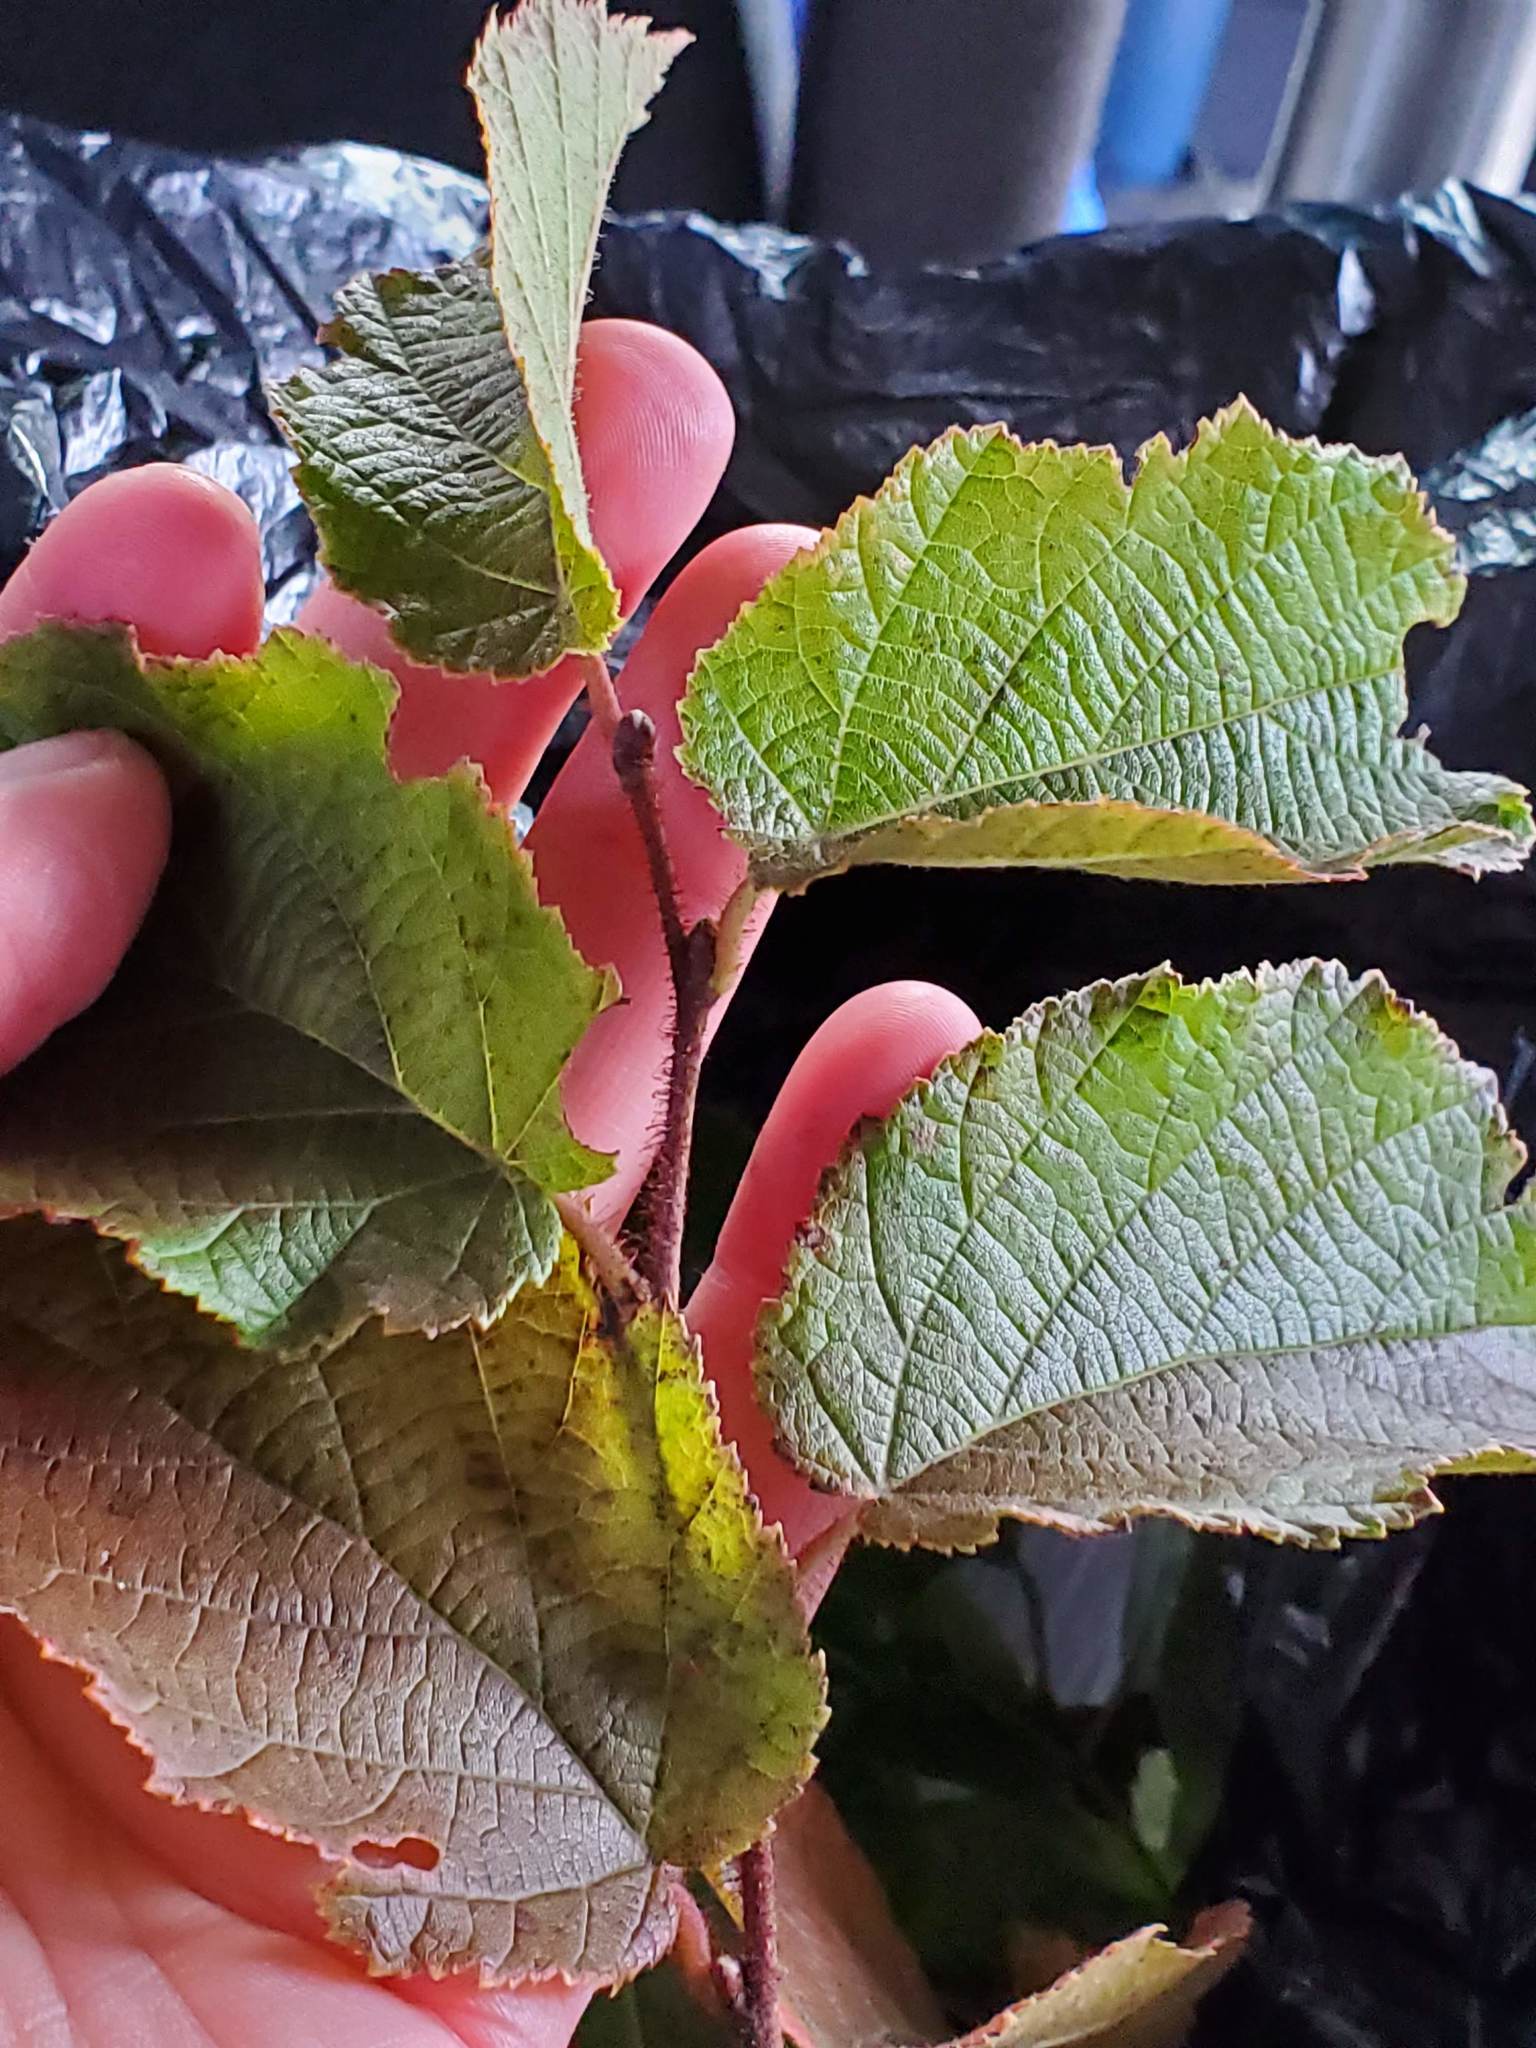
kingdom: Plantae
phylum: Tracheophyta
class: Magnoliopsida
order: Fagales
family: Betulaceae
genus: Corylus
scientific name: Corylus americana
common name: American hazel
